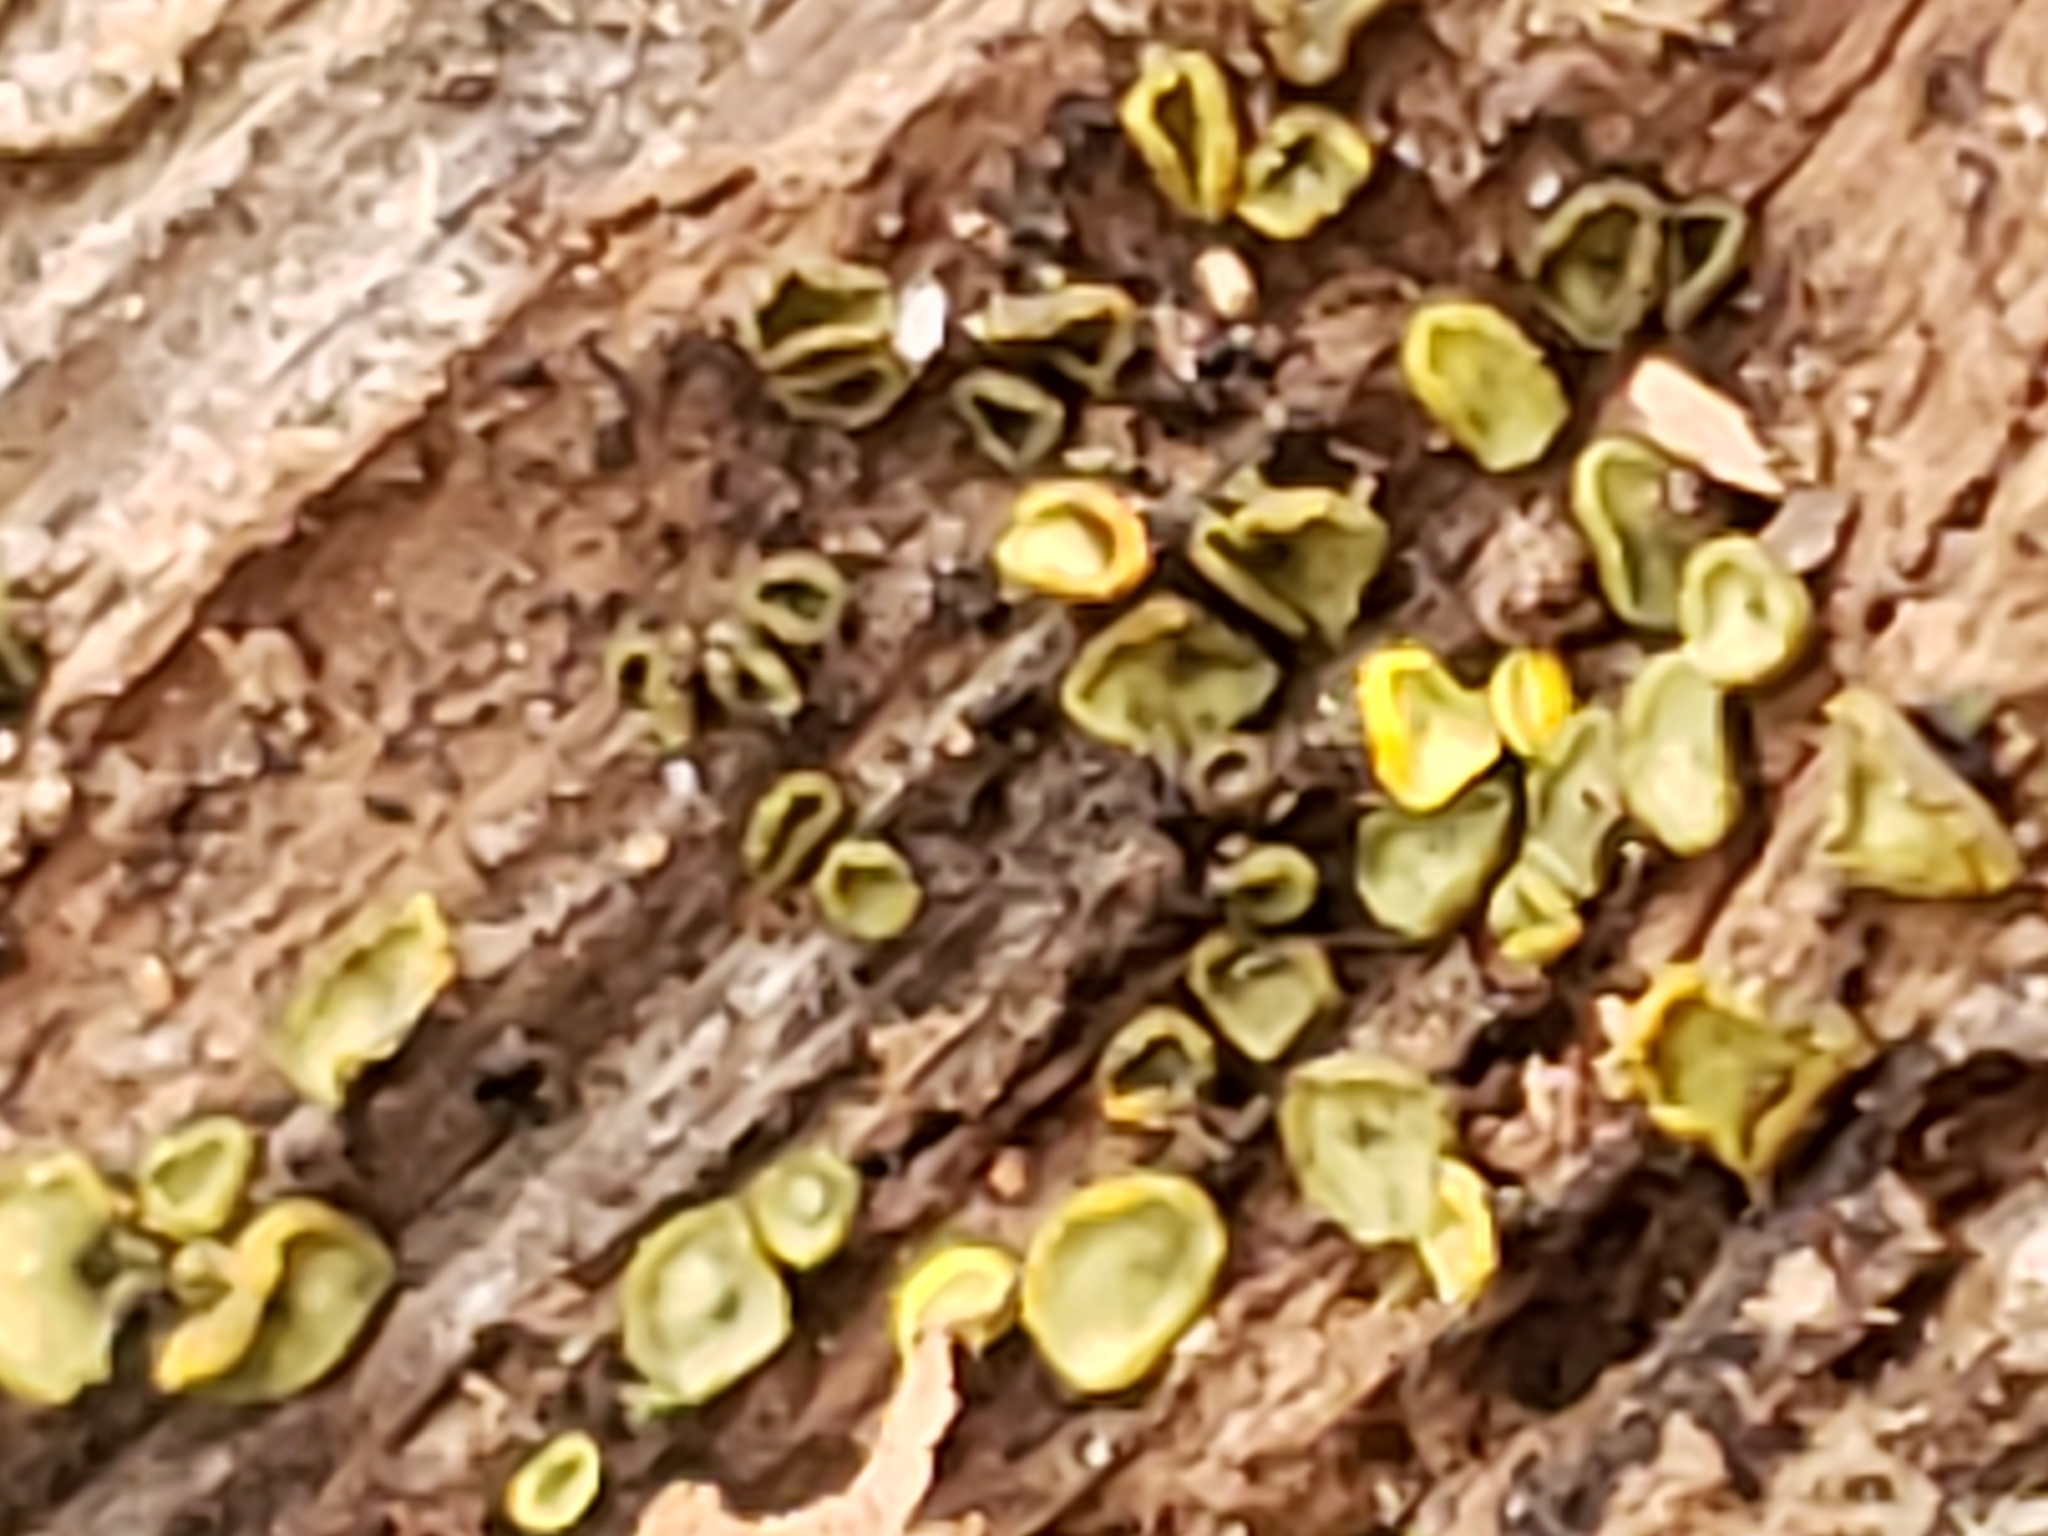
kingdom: Fungi
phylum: Ascomycota
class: Leotiomycetes
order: Helotiales
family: Chlorospleniaceae
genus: Chlorosplenium
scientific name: Chlorosplenium chlora
